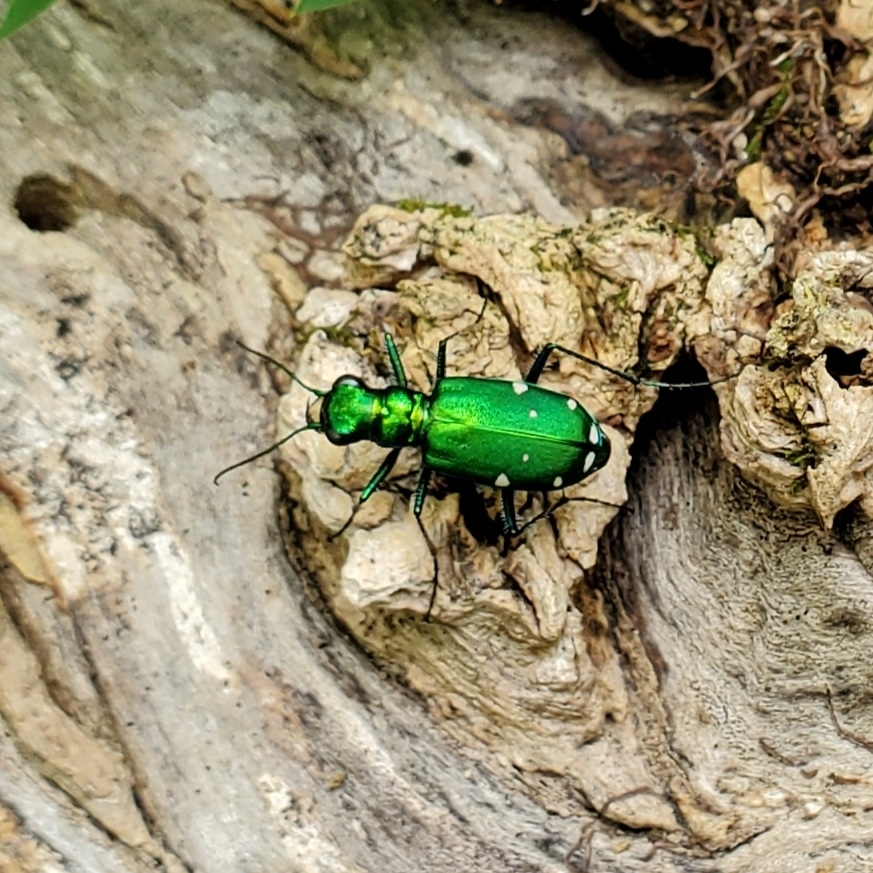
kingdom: Animalia
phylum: Arthropoda
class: Insecta
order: Coleoptera
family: Carabidae
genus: Cicindela
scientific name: Cicindela sexguttata
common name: Six-spotted tiger beetle
